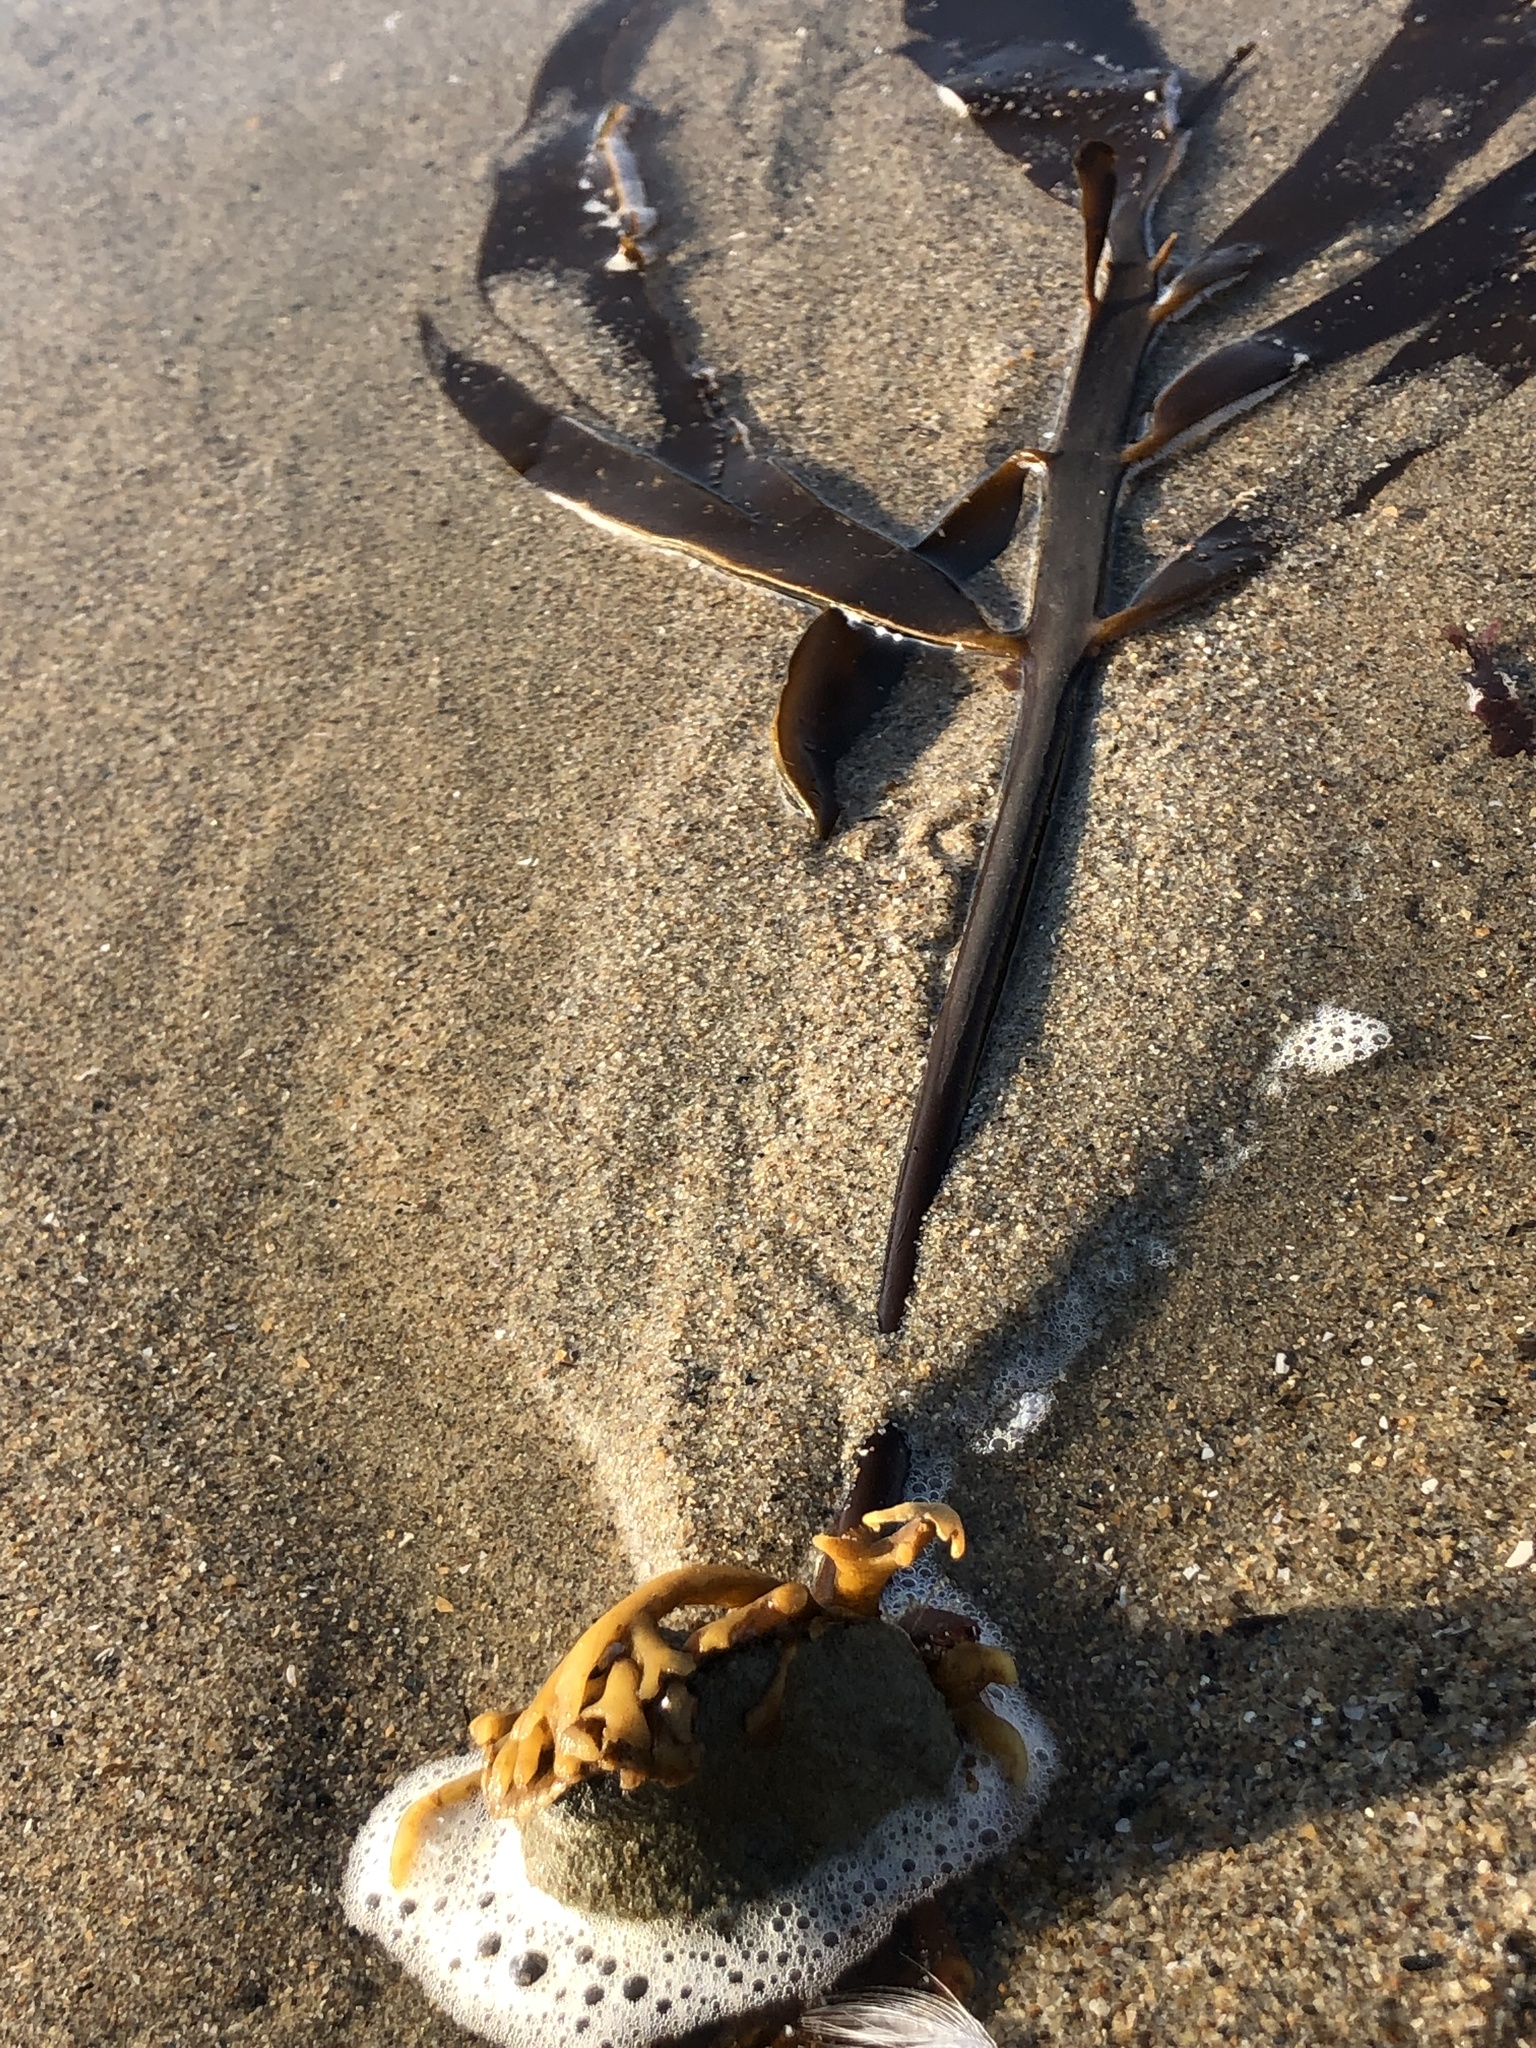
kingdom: Chromista
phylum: Ochrophyta
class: Phaeophyceae
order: Laminariales
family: Alariaceae
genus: Pterygophora
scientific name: Pterygophora californica
